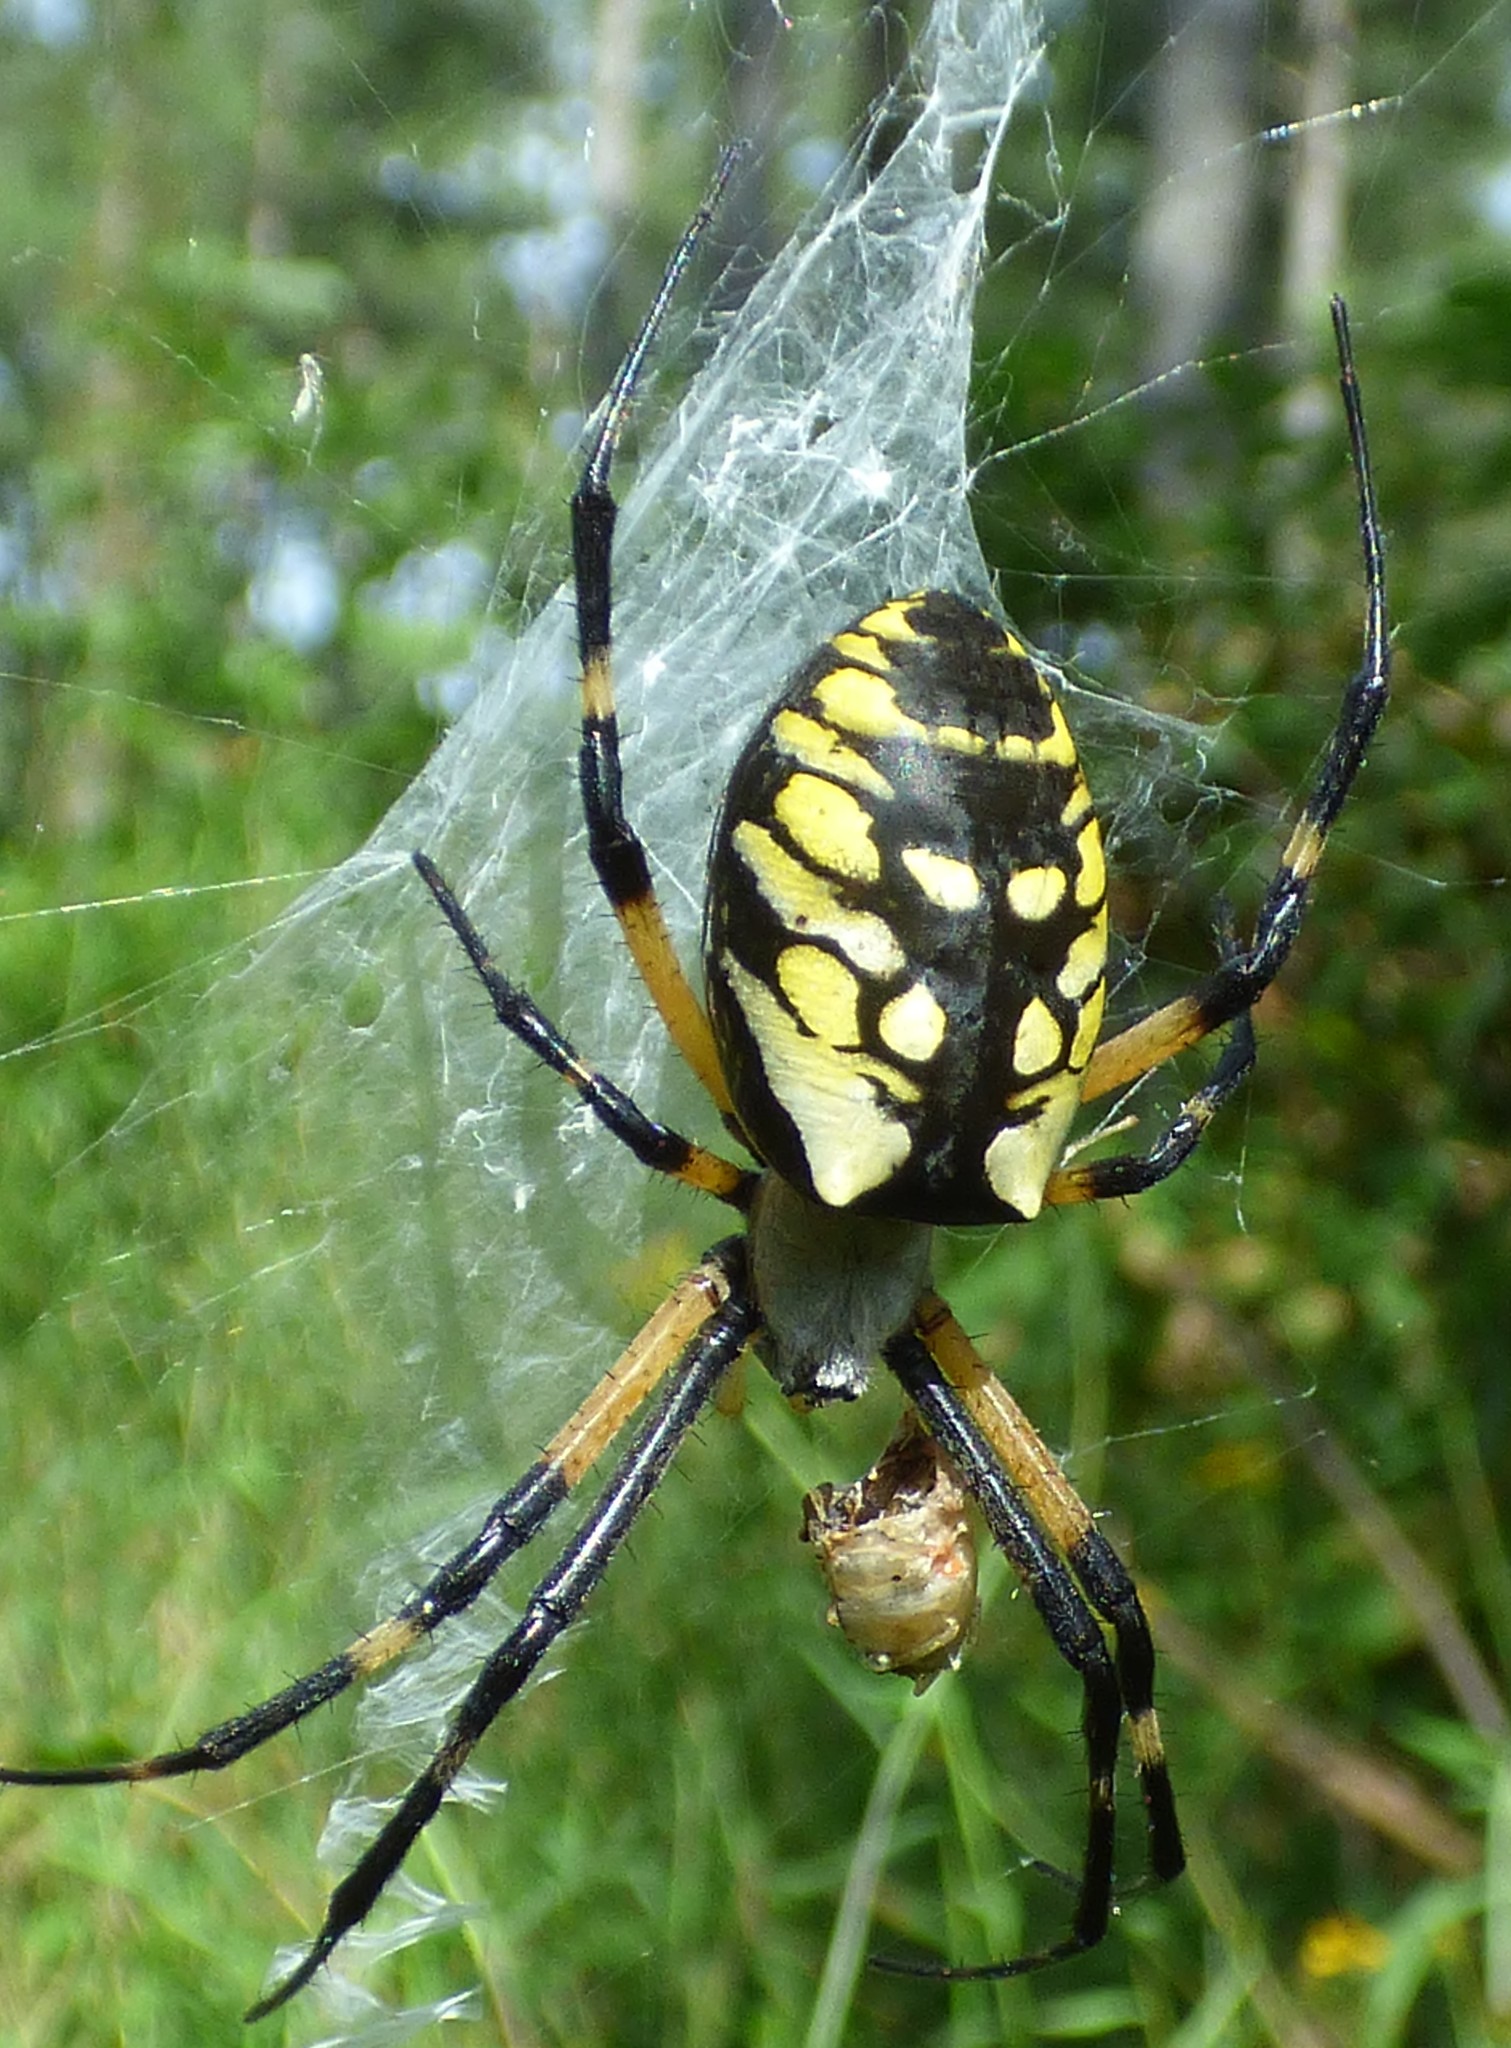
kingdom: Animalia
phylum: Arthropoda
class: Arachnida
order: Araneae
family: Araneidae
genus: Argiope
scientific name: Argiope aurantia
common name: Orb weavers
